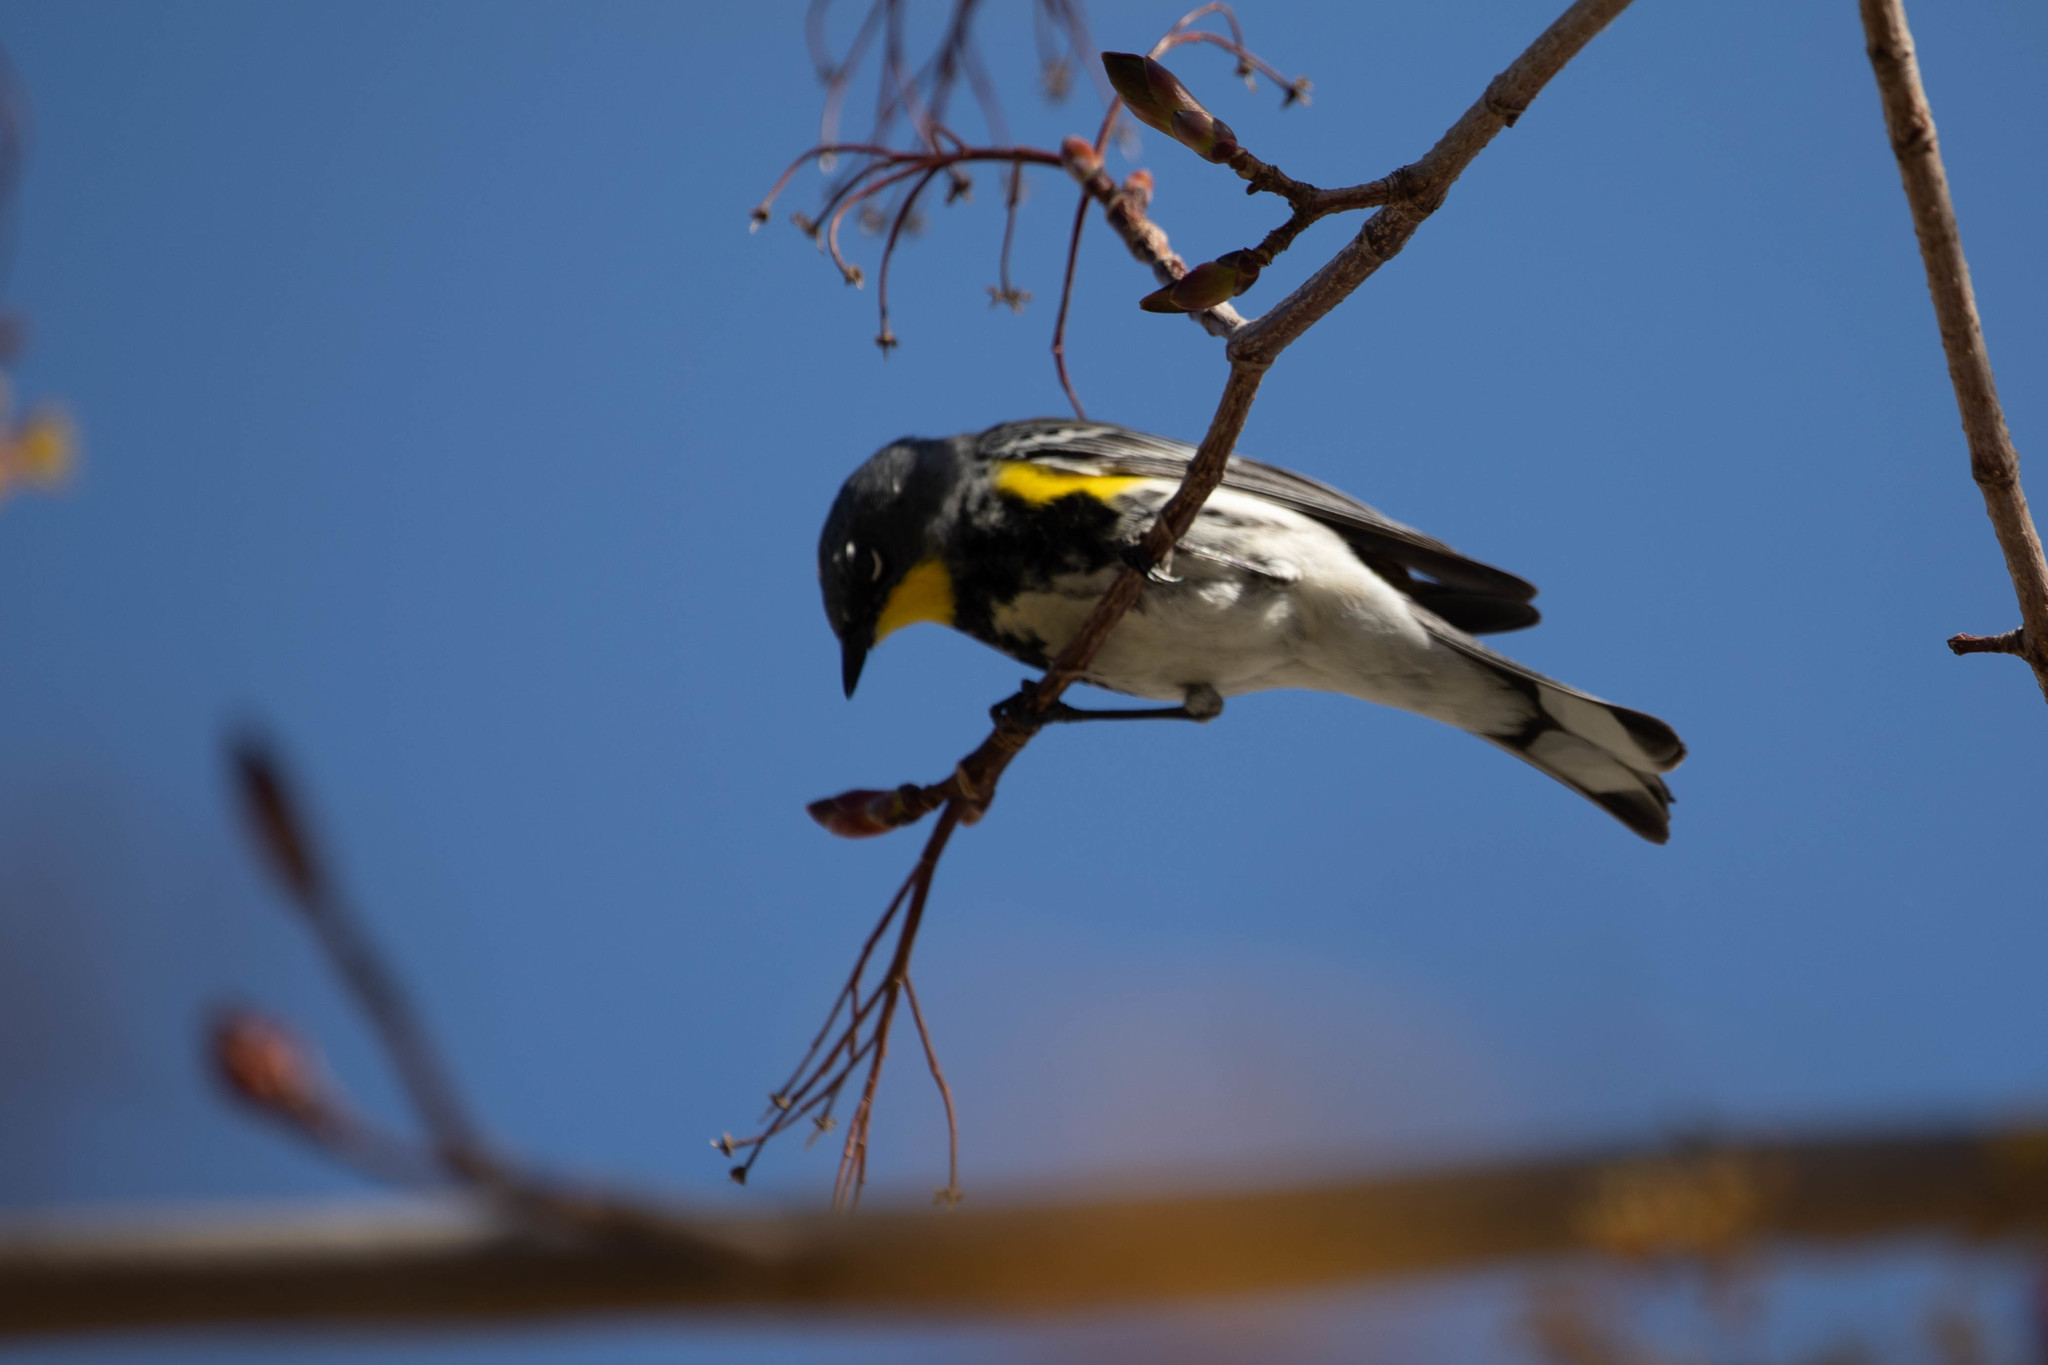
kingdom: Animalia
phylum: Chordata
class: Aves
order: Passeriformes
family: Parulidae
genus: Setophaga
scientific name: Setophaga auduboni
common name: Audubon's warbler
